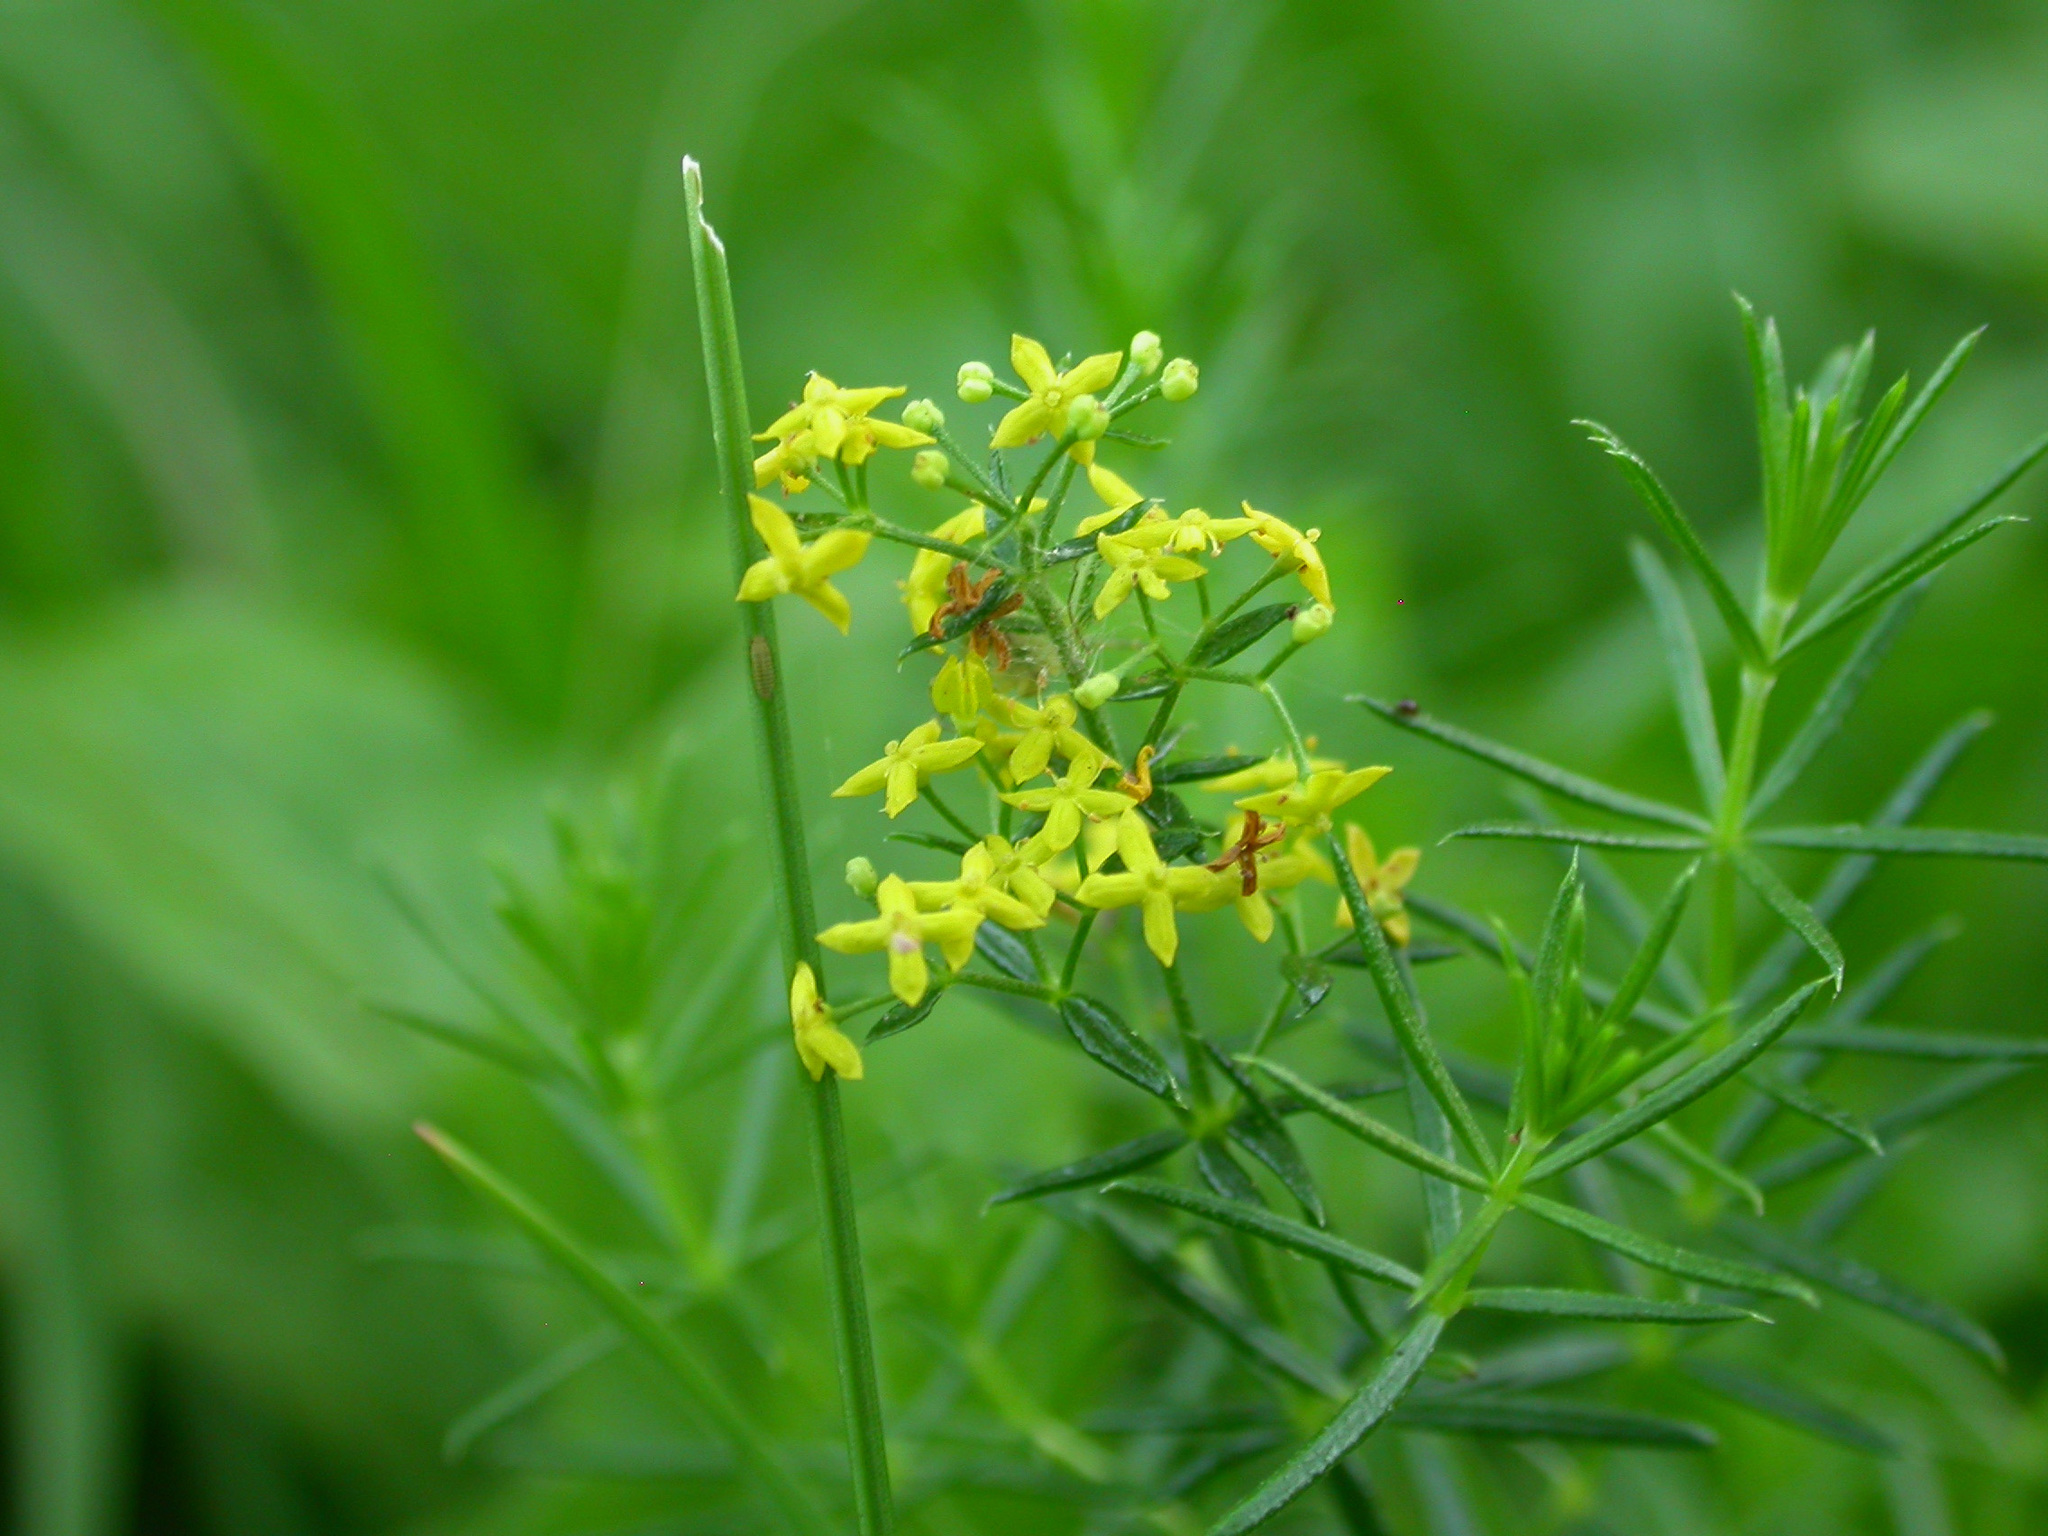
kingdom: Plantae
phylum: Tracheophyta
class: Magnoliopsida
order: Gentianales
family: Rubiaceae
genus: Galium
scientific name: Galium verum
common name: Lady's bedstraw
